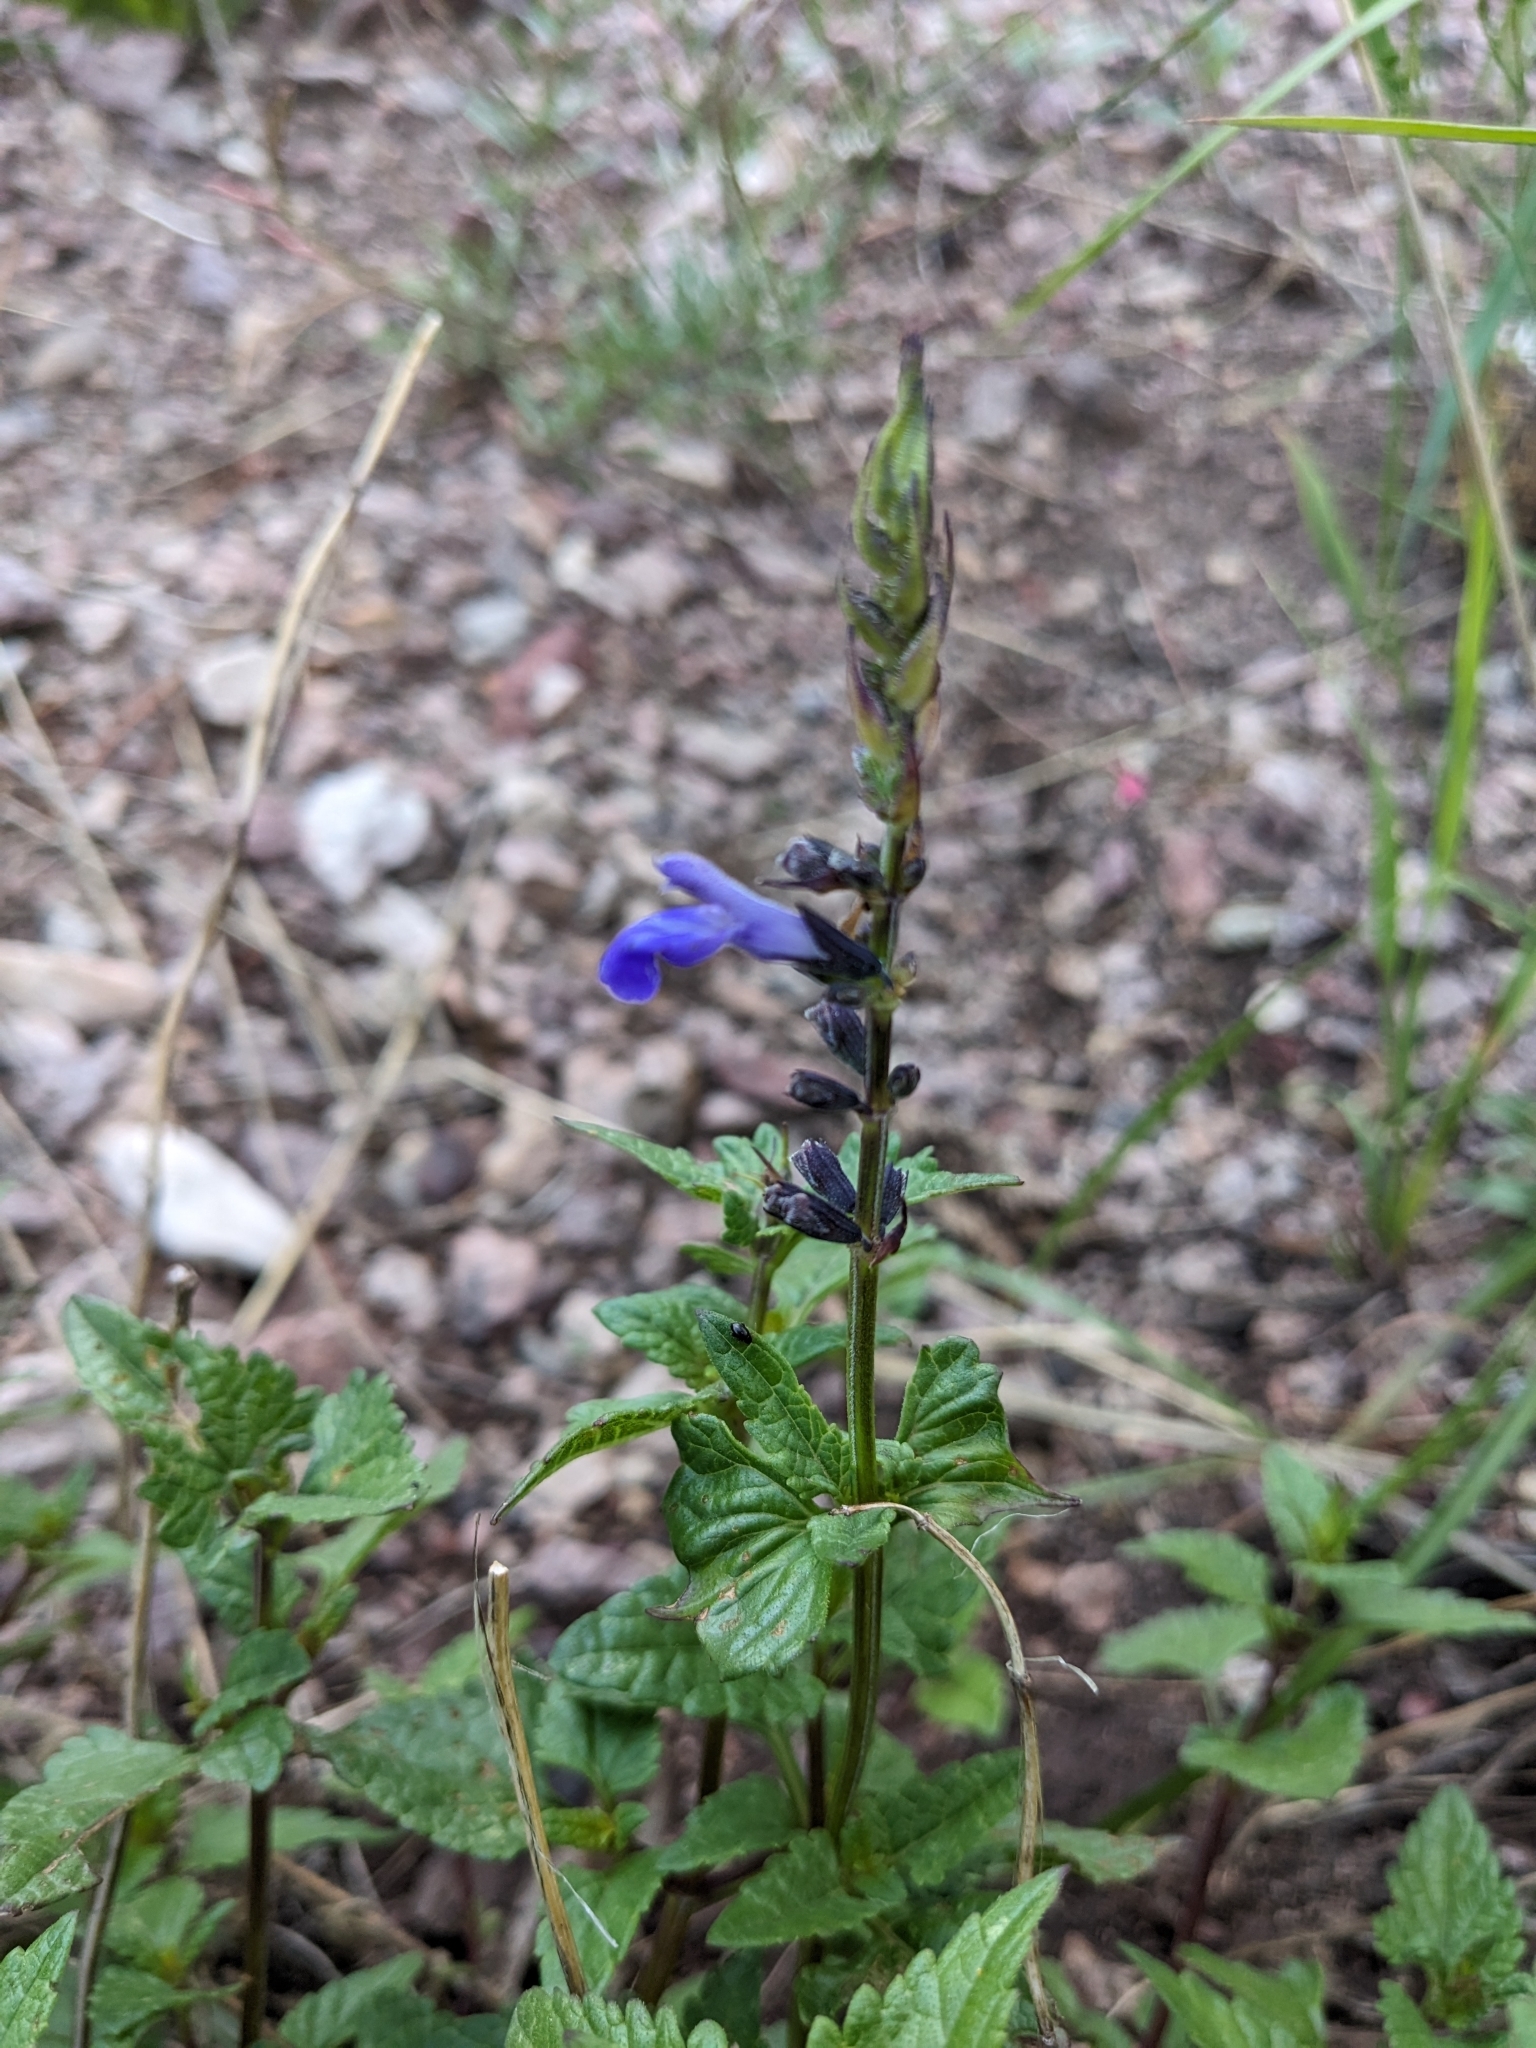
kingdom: Plantae
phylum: Tracheophyta
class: Magnoliopsida
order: Lamiales
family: Lamiaceae
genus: Salvia
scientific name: Salvia arizonica
